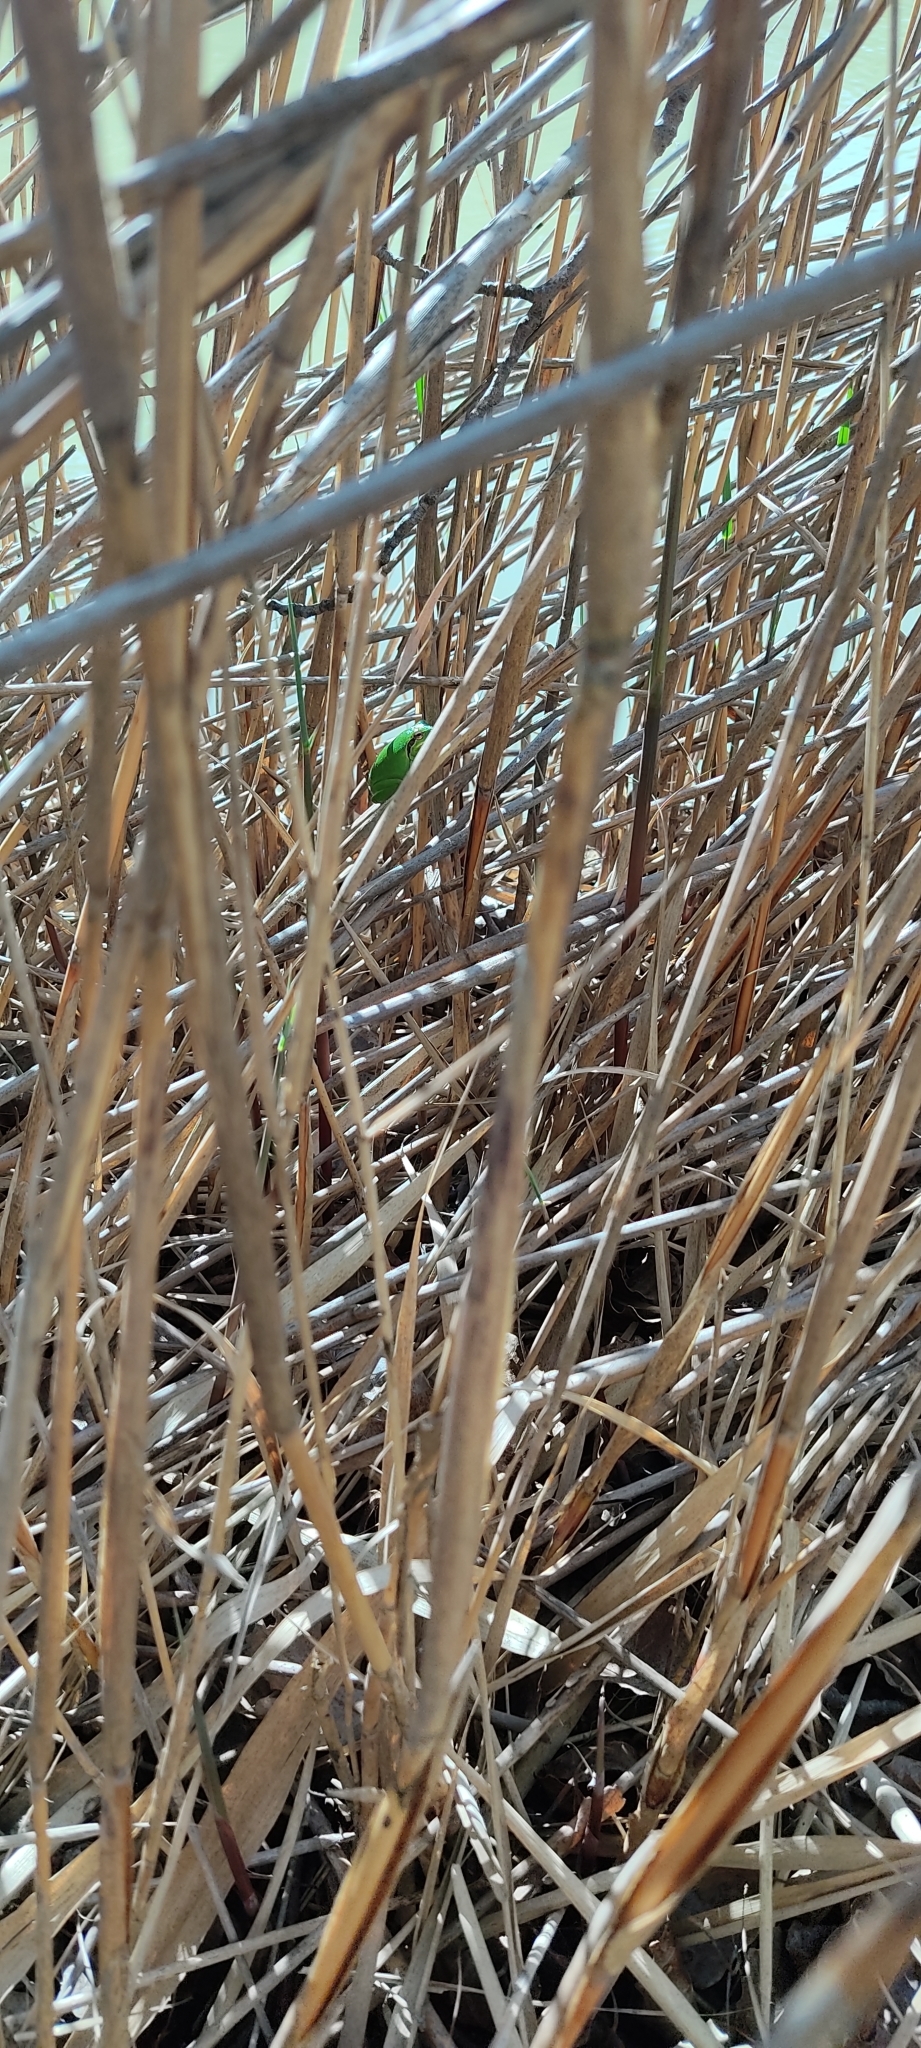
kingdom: Animalia
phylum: Chordata
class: Amphibia
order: Anura
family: Hylidae
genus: Hyla
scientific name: Hyla meridionalis
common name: Stripeless tree frog
